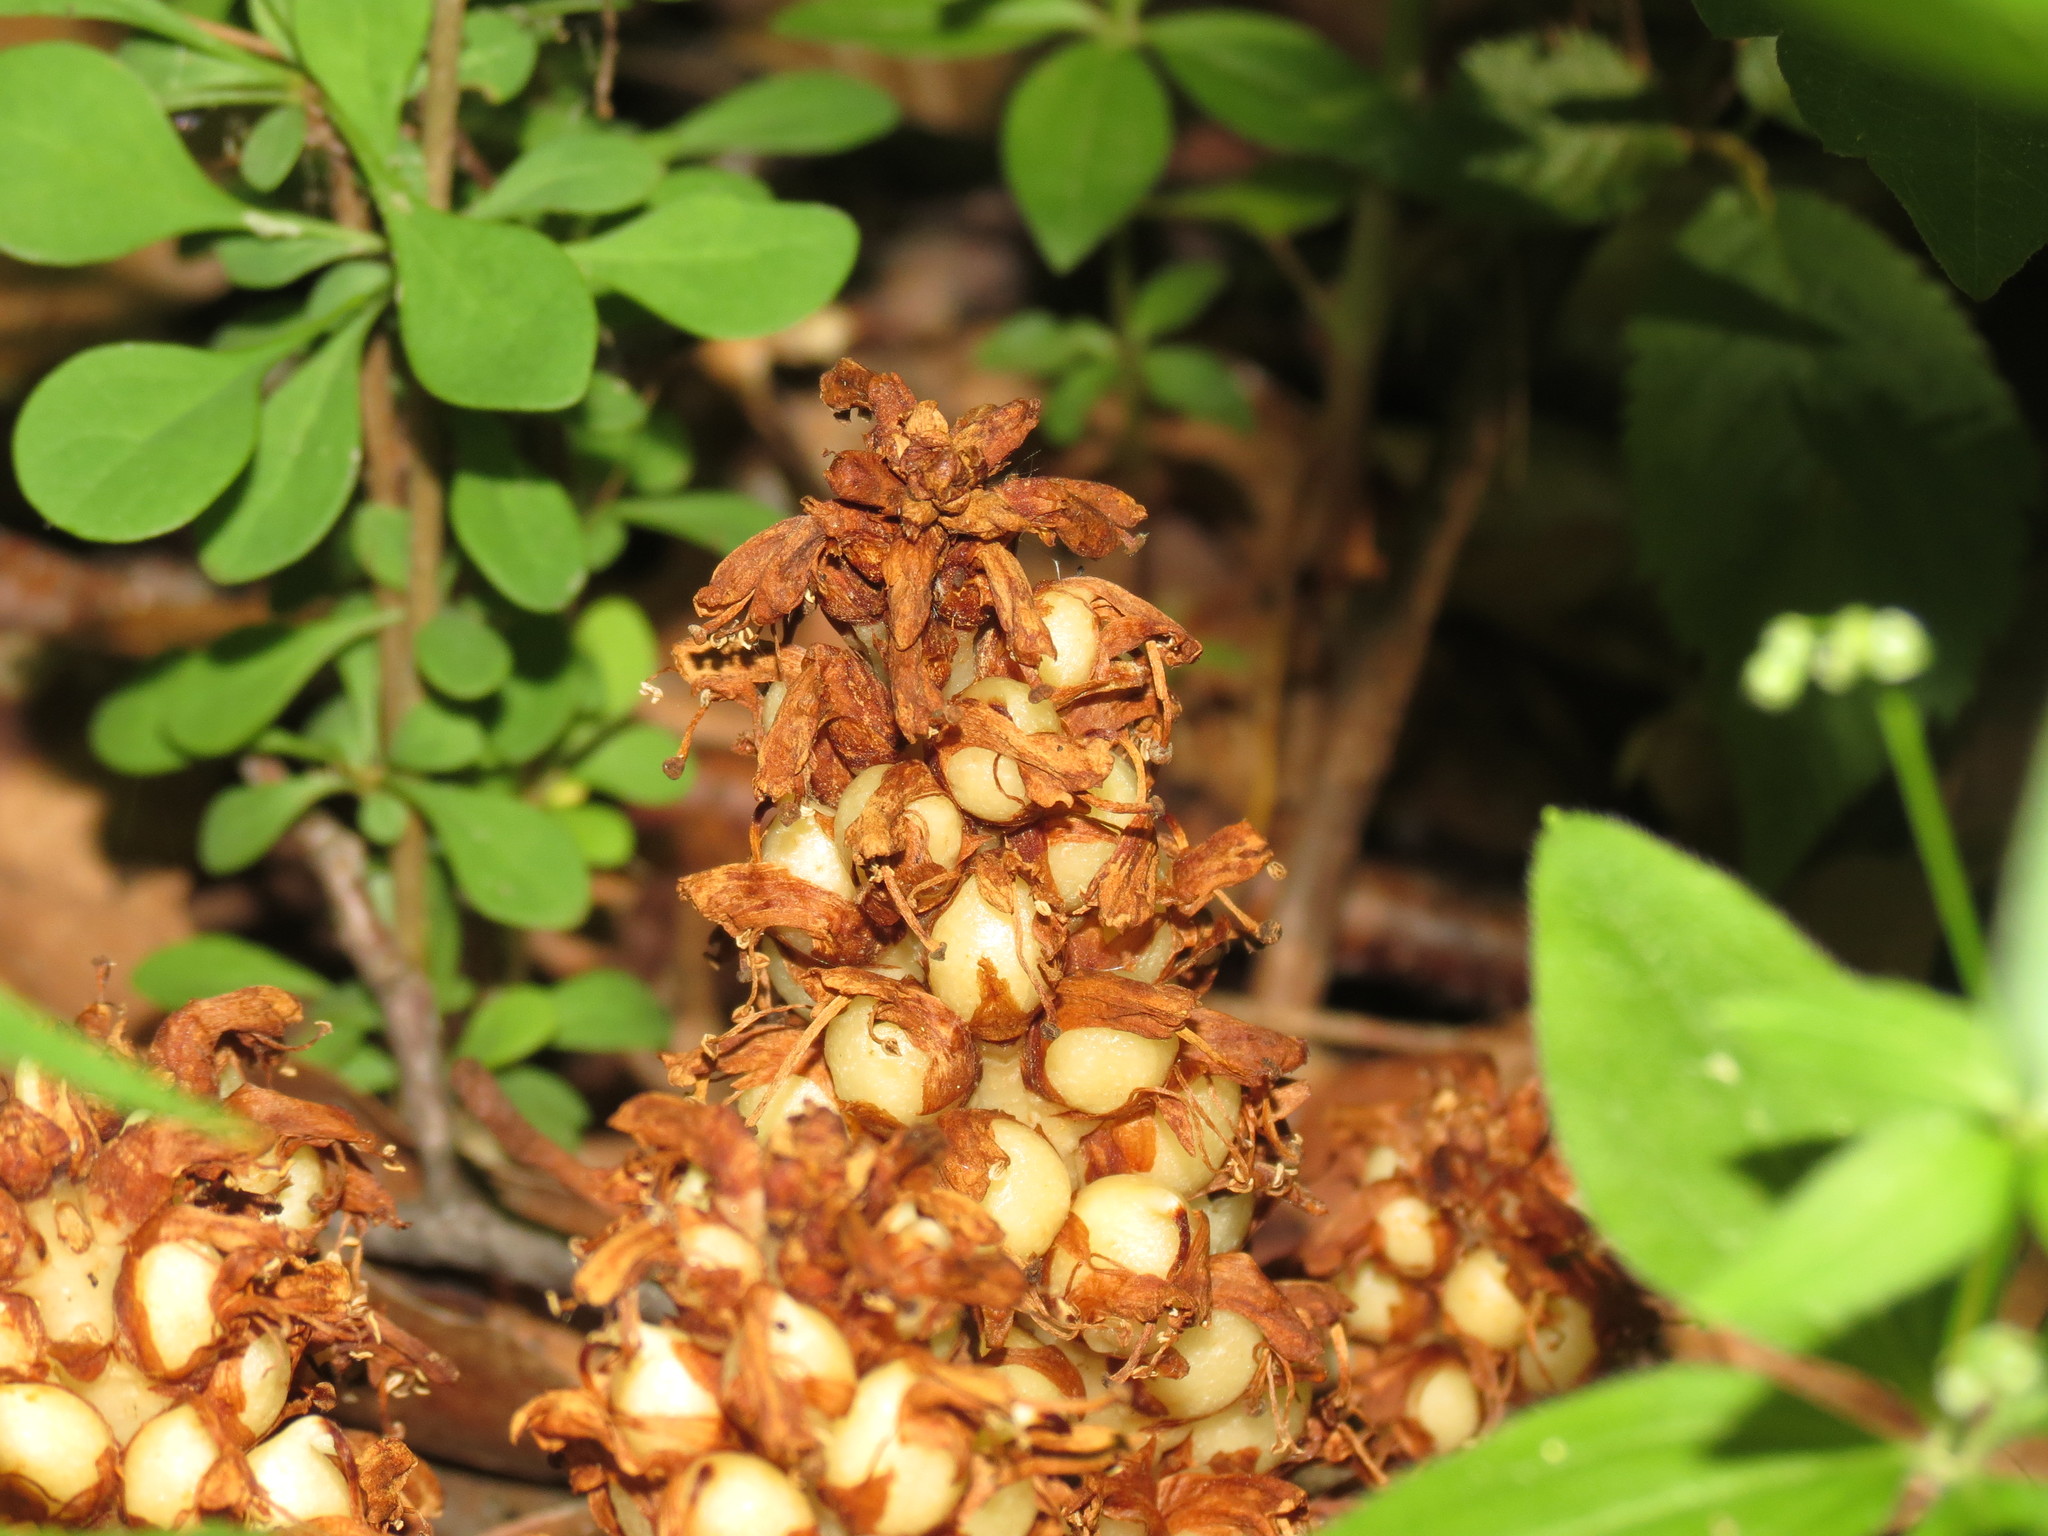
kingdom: Plantae
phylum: Tracheophyta
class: Magnoliopsida
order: Lamiales
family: Orobanchaceae
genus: Conopholis
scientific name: Conopholis americana
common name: American cancer-root
